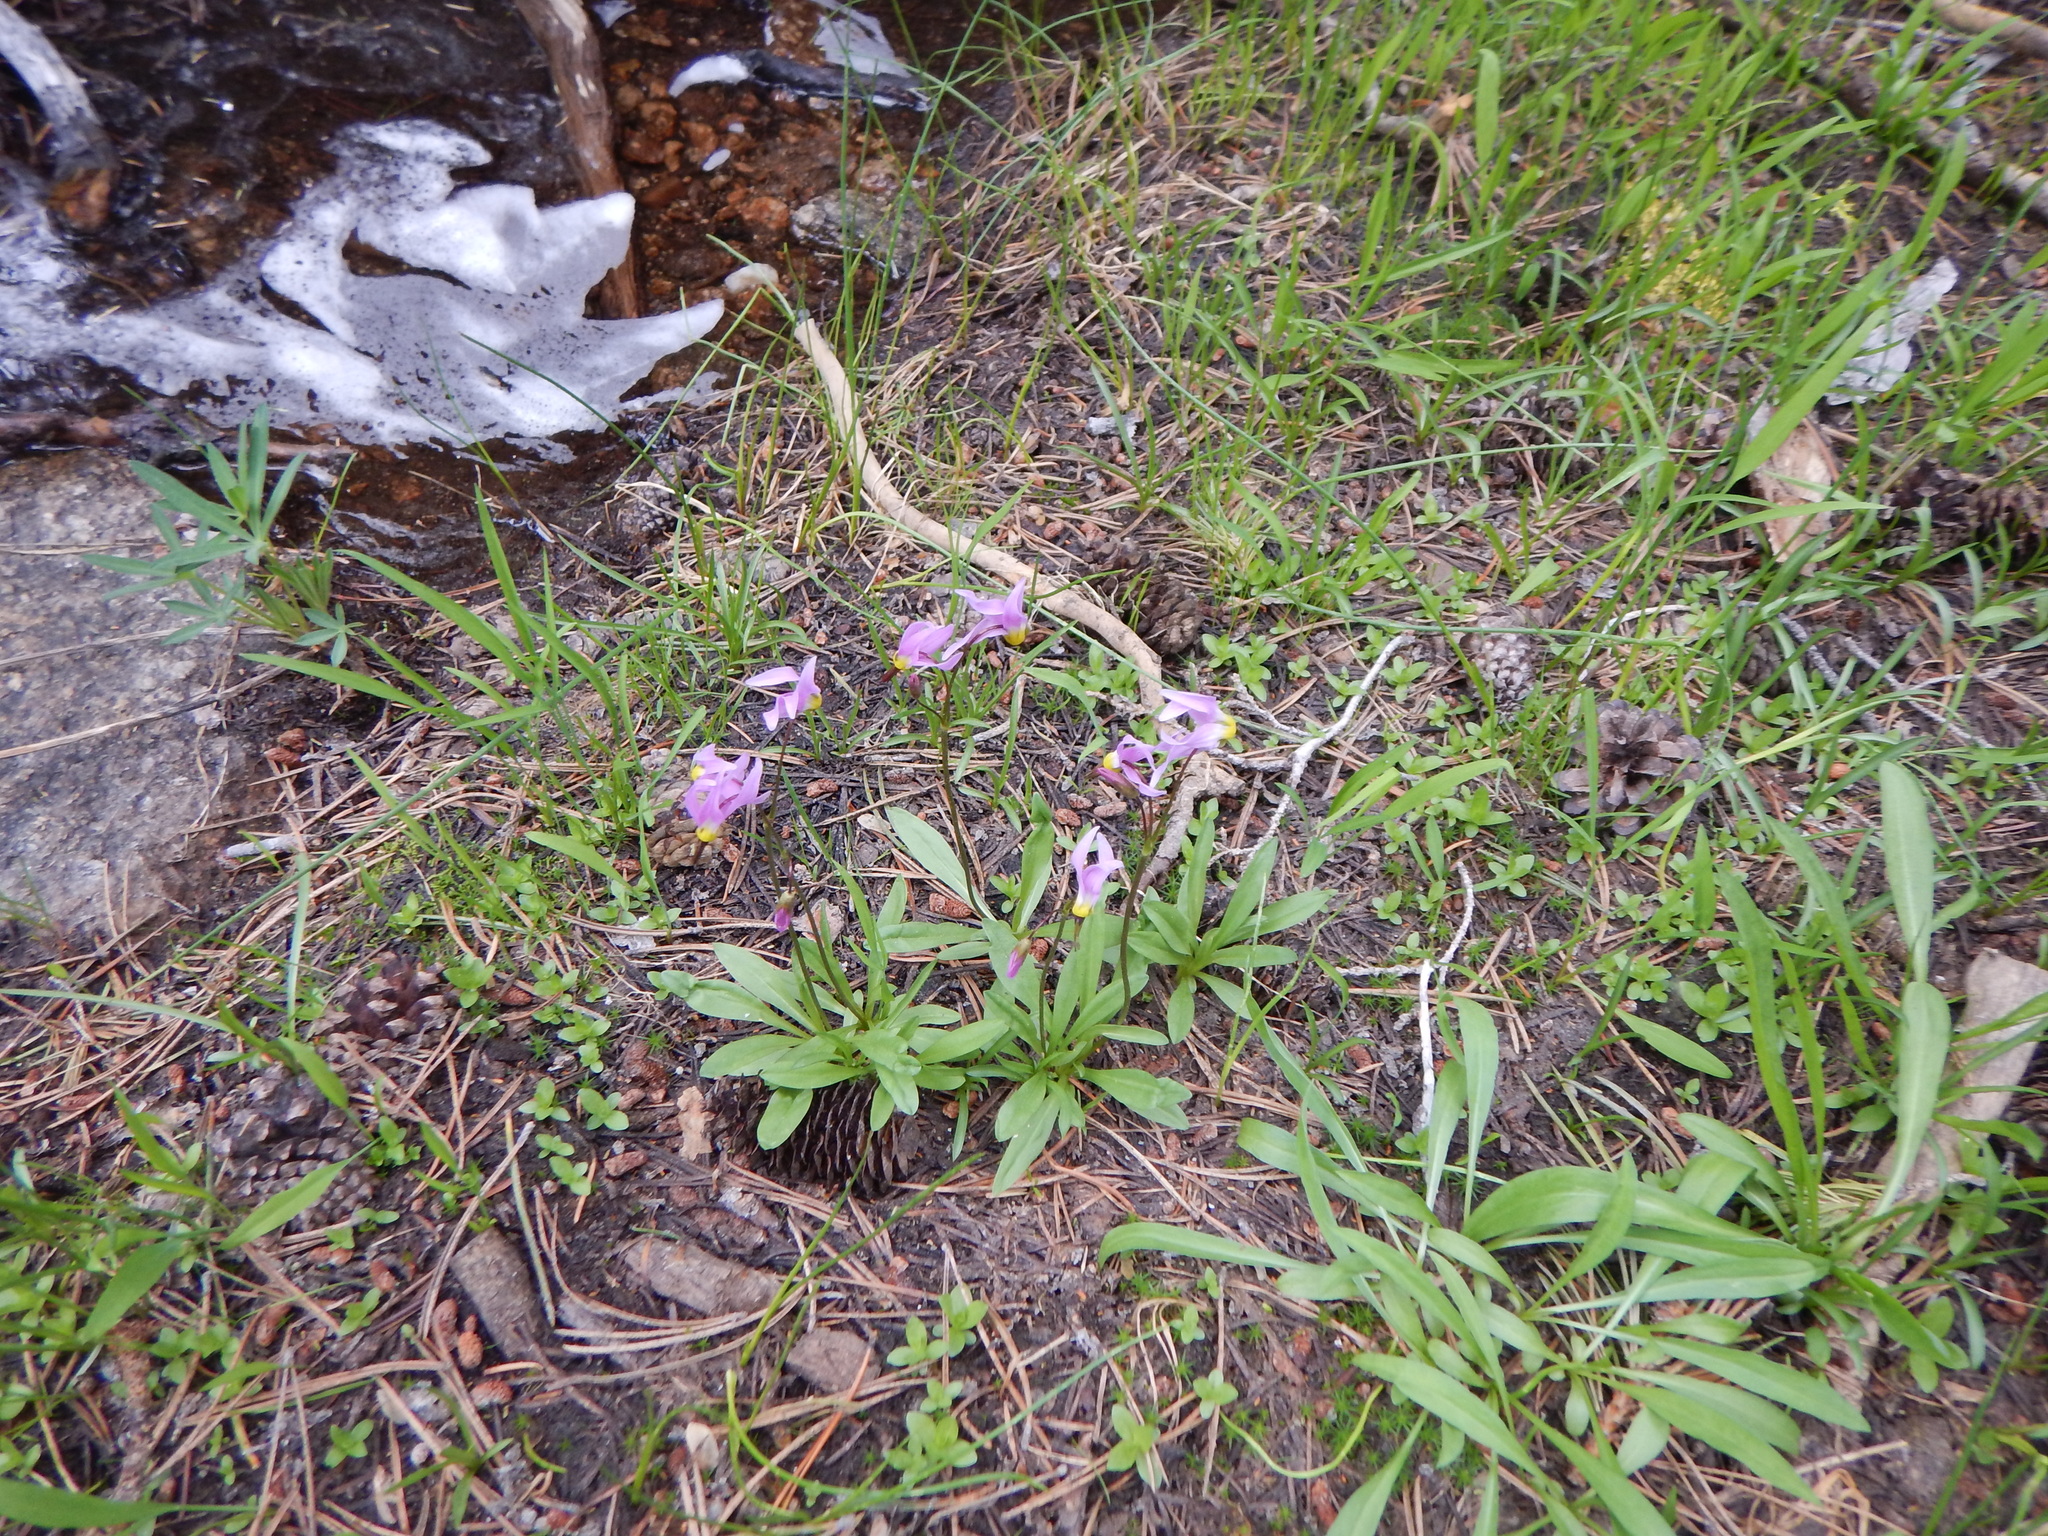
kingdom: Plantae
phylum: Tracheophyta
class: Magnoliopsida
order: Ericales
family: Primulaceae
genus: Dodecatheon
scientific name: Dodecatheon jeffreyanum
